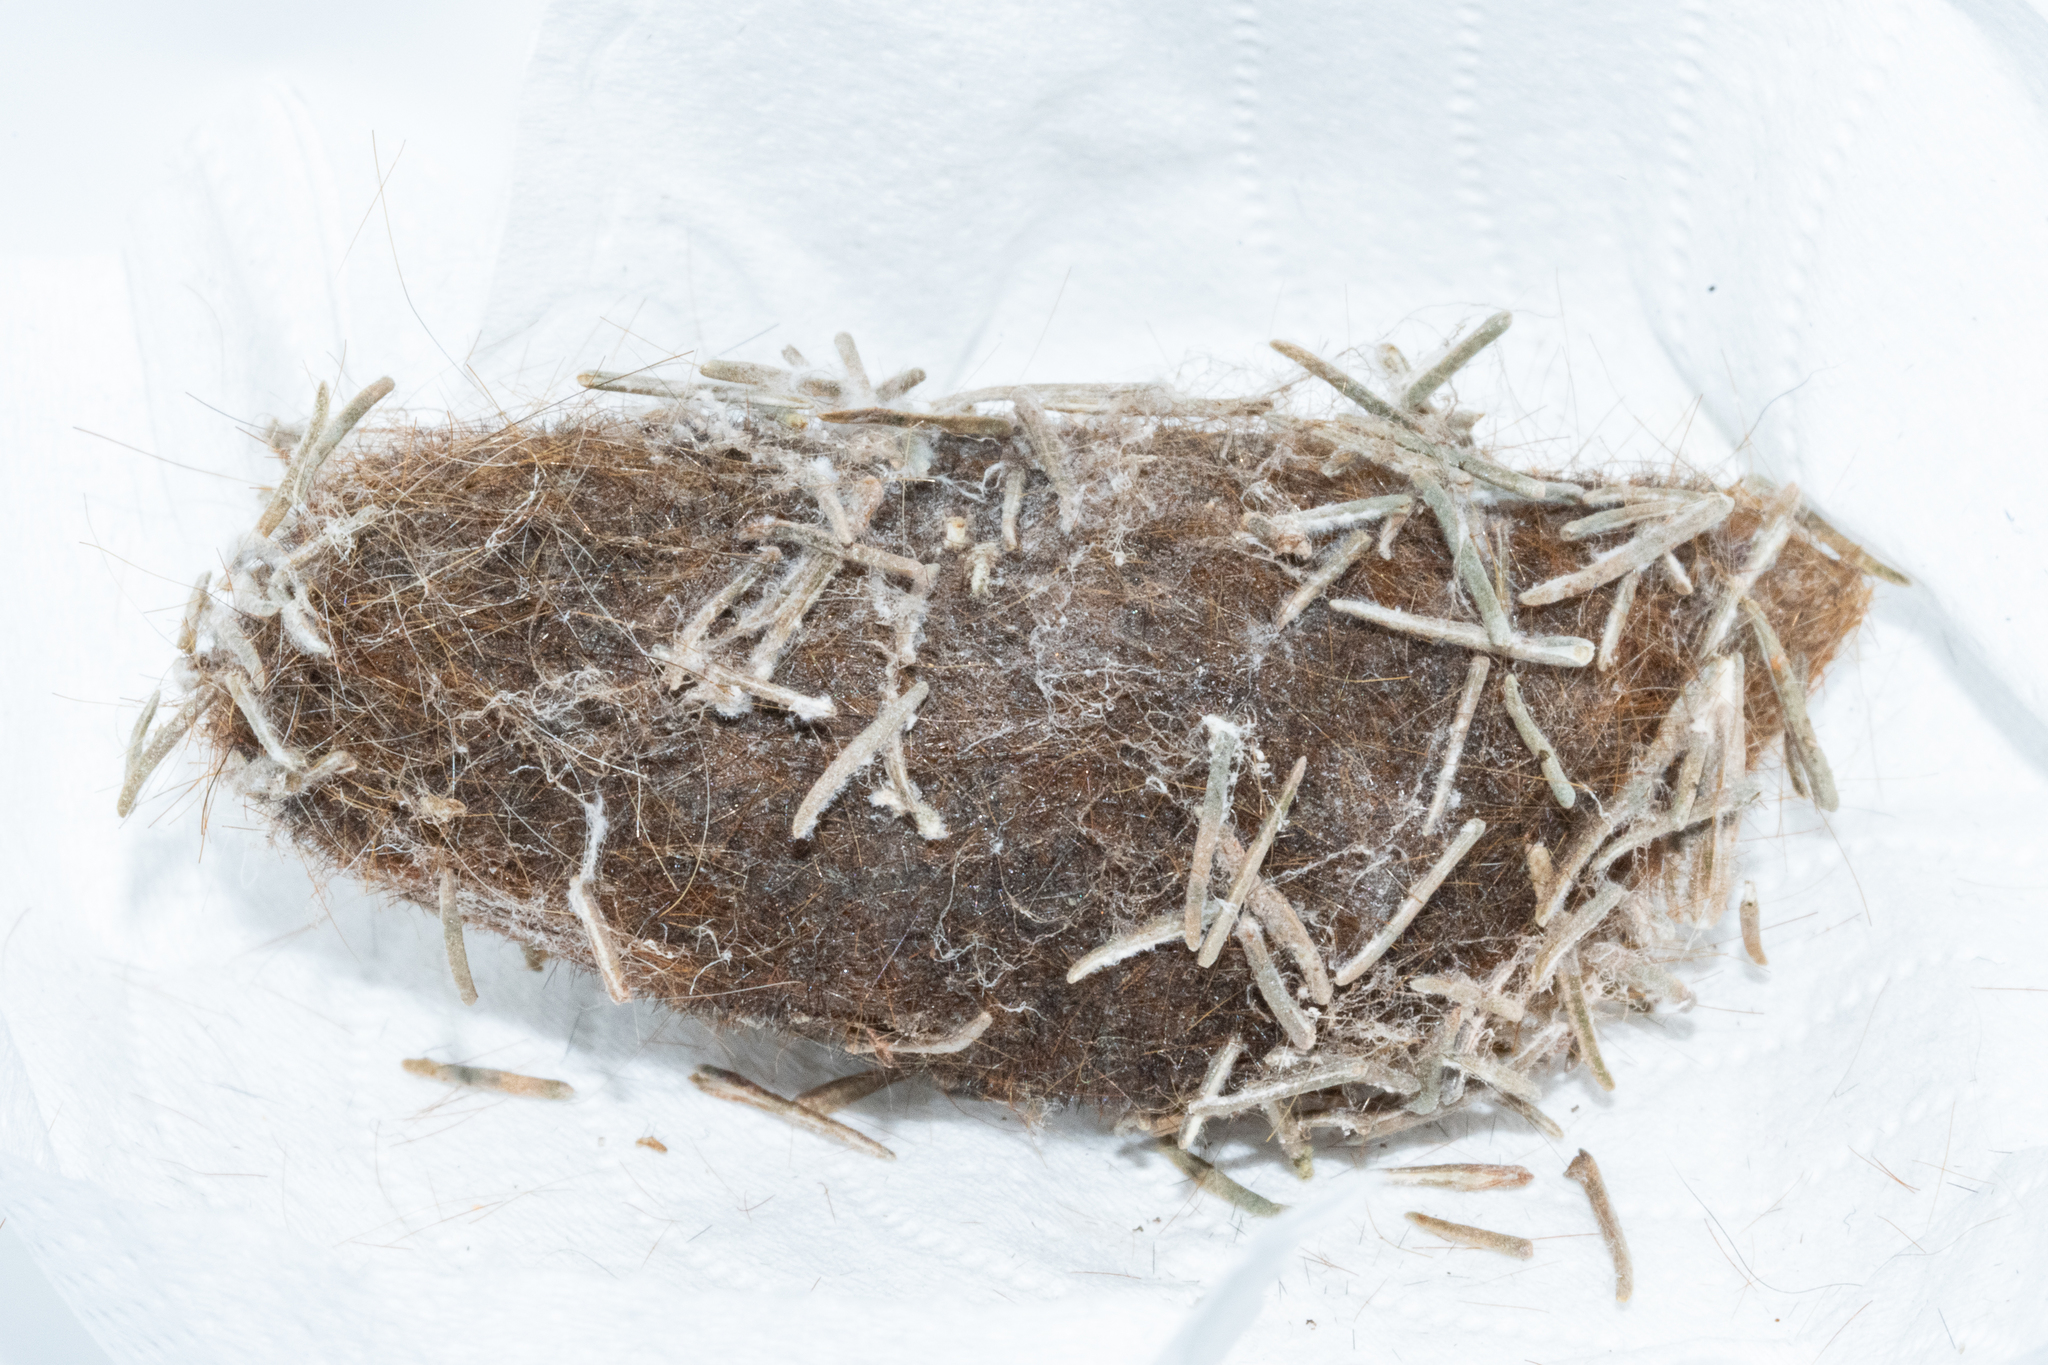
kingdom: Animalia
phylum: Arthropoda
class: Insecta
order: Lepidoptera
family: Lasiocampidae
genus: Mesocelis
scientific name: Mesocelis monticola
